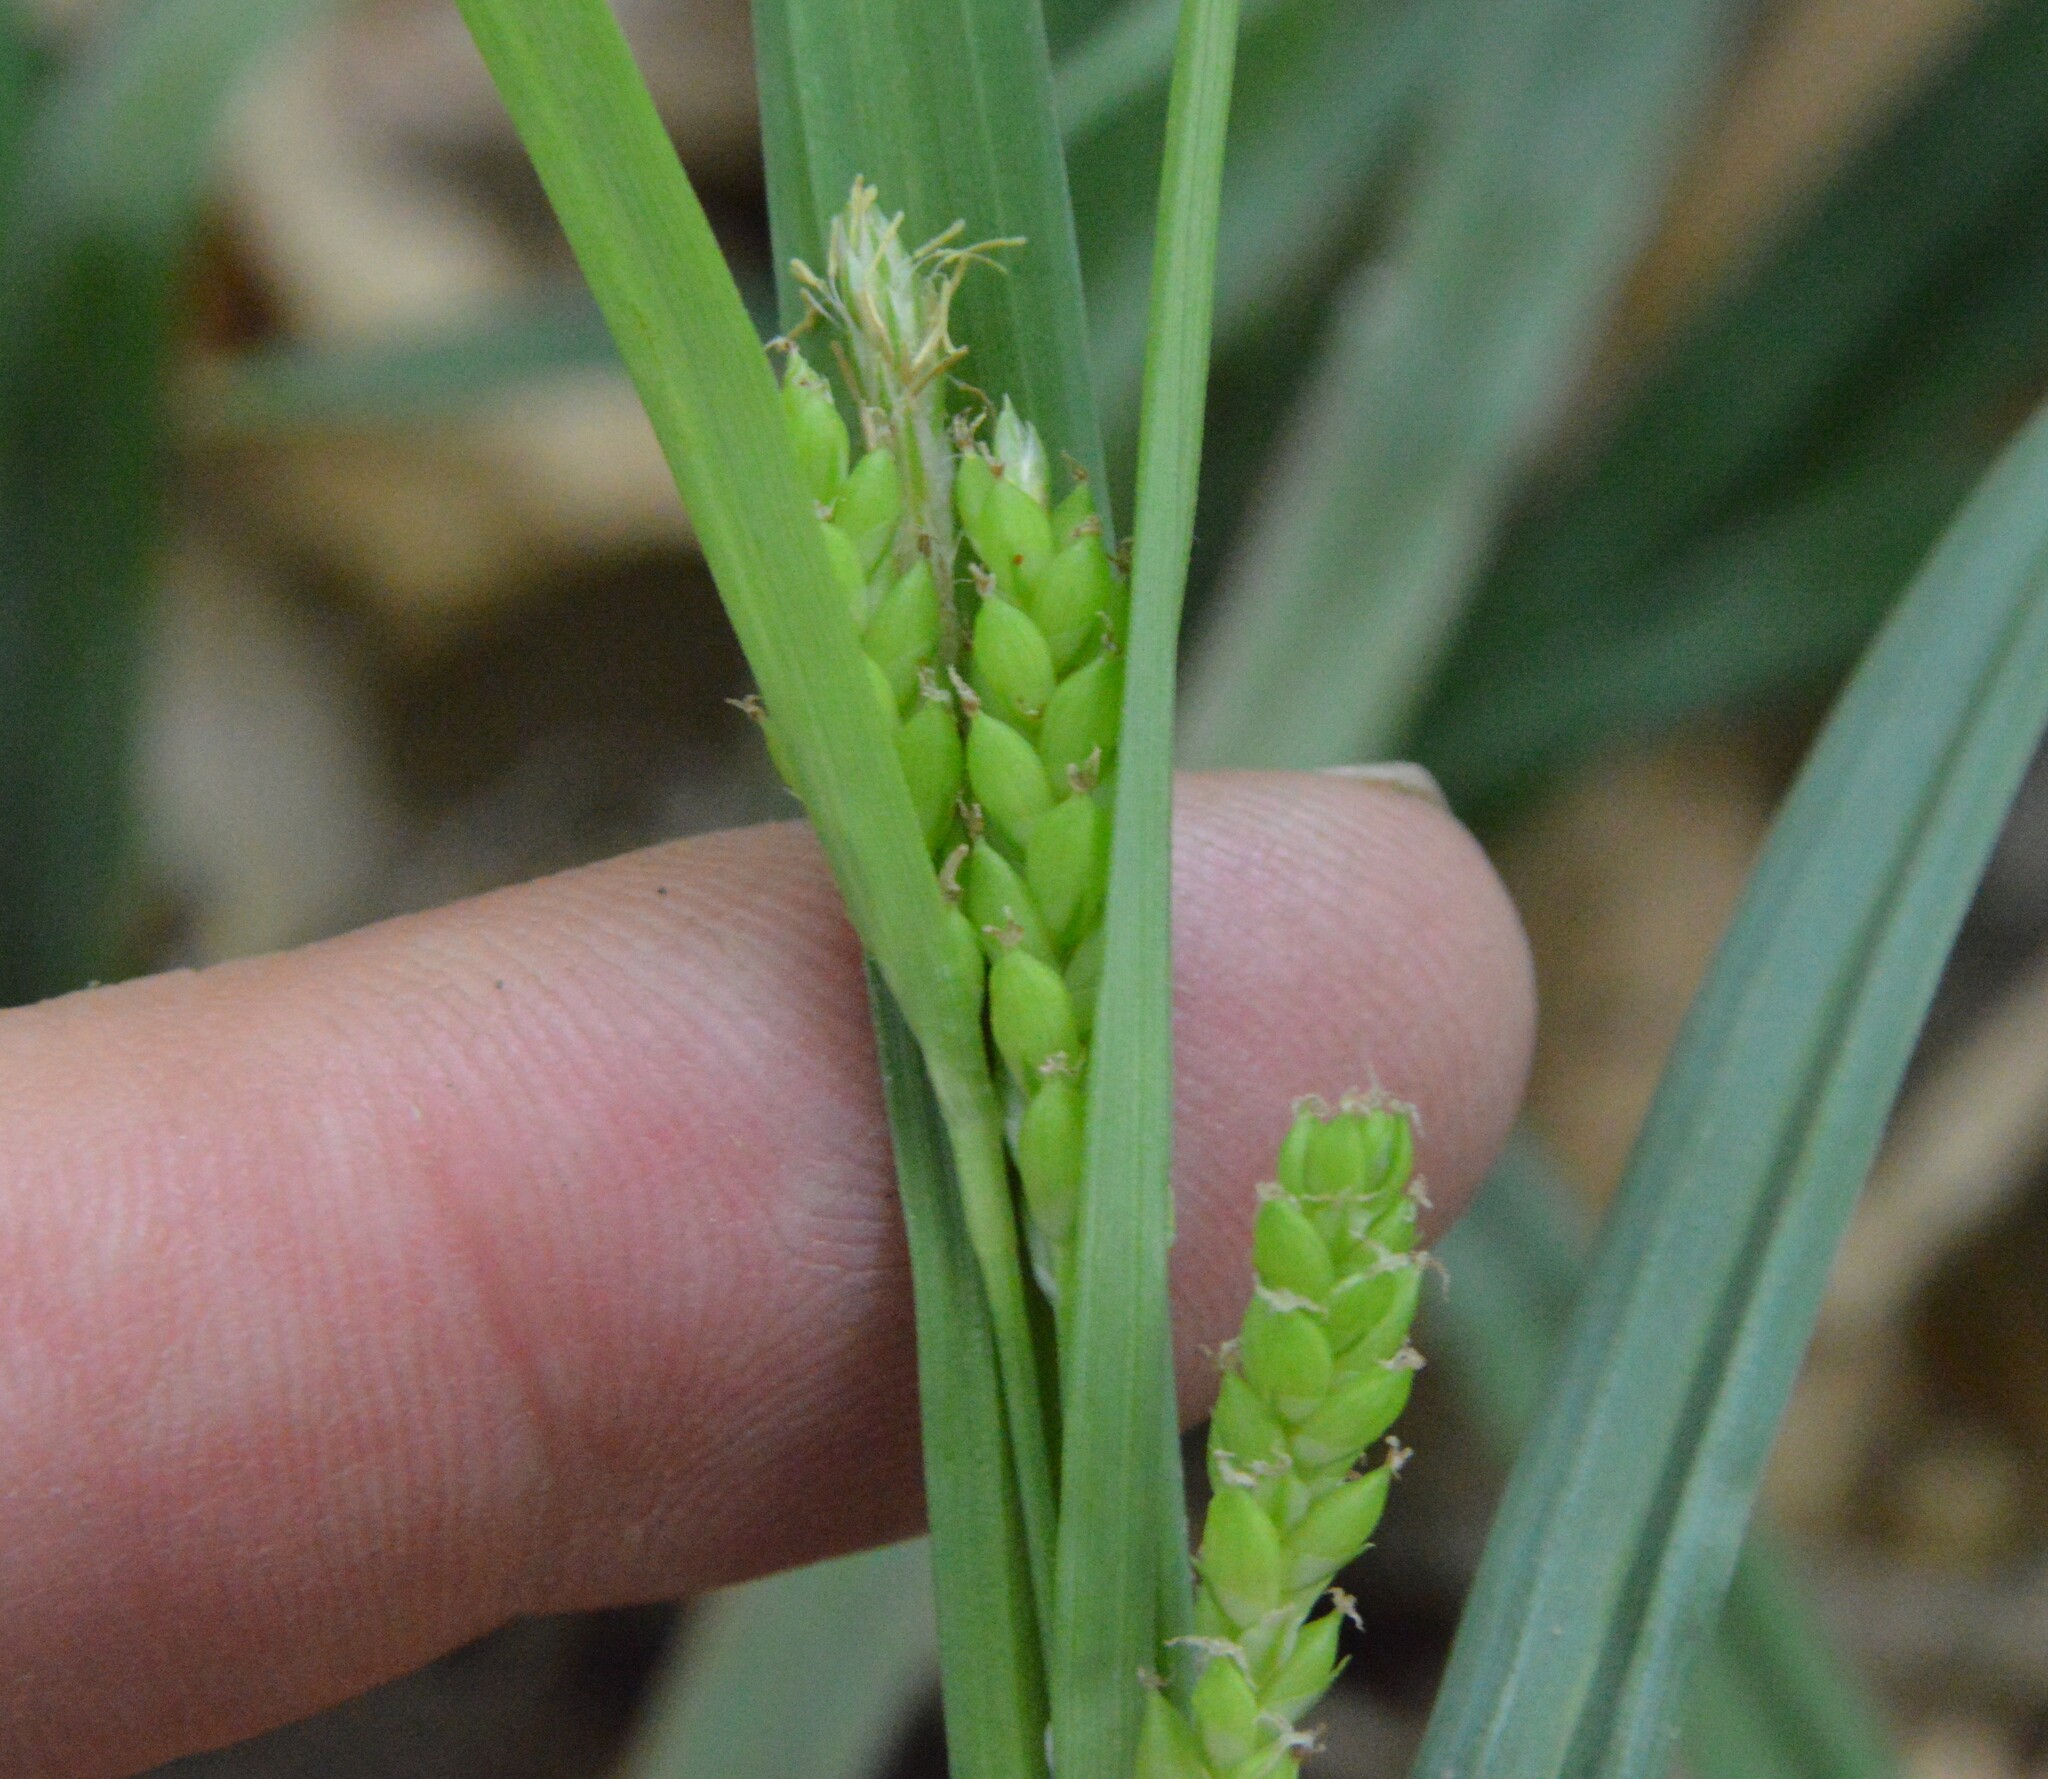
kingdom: Plantae
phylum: Tracheophyta
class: Liliopsida
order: Poales
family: Cyperaceae
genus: Carex
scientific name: Carex flaccosperma
